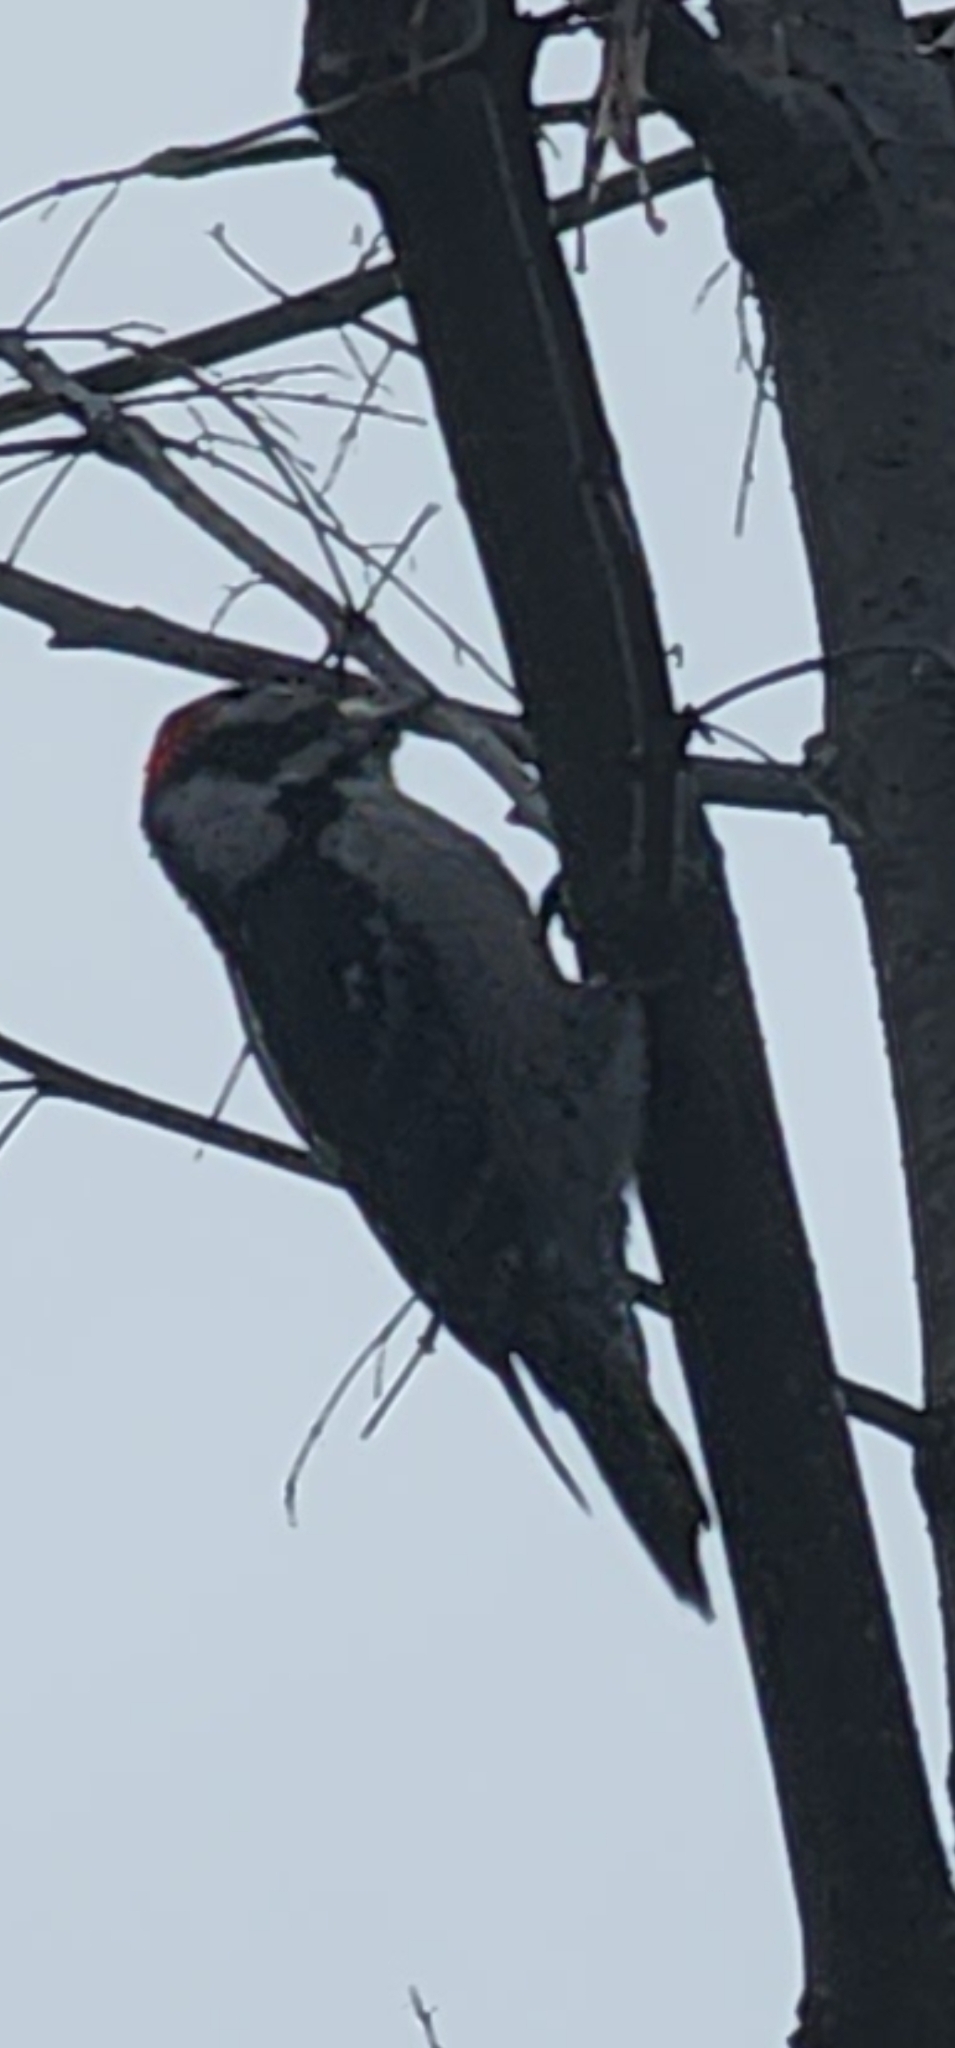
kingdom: Animalia
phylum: Chordata
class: Aves
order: Piciformes
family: Picidae
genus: Dryobates
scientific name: Dryobates pubescens
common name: Downy woodpecker
